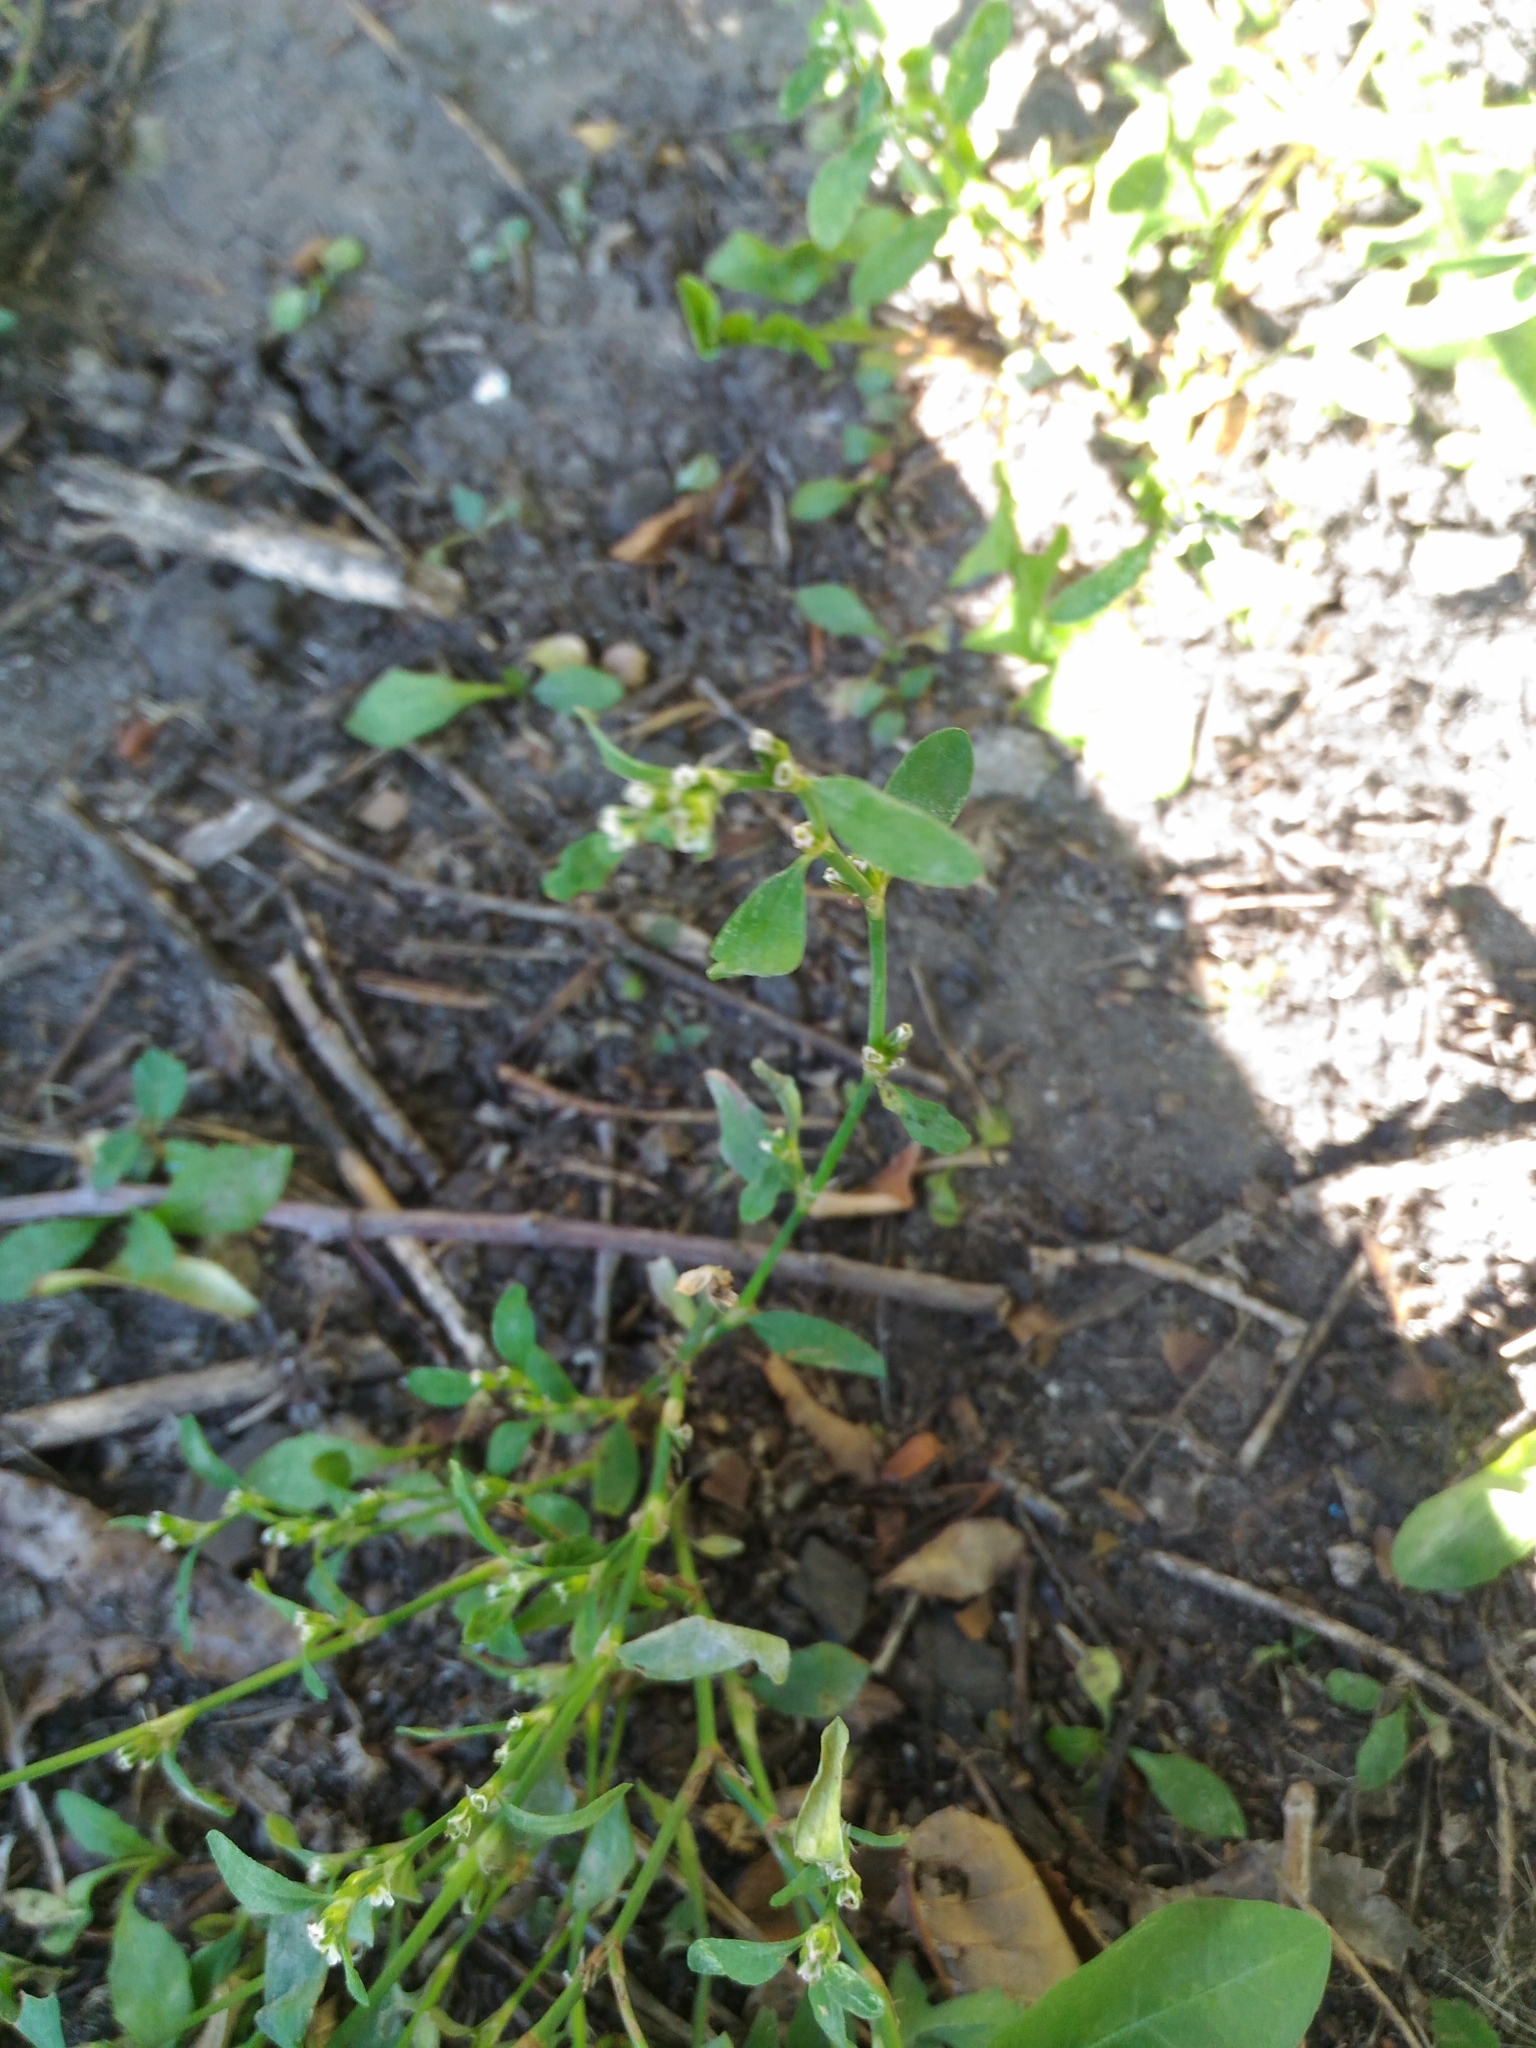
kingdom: Plantae
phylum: Tracheophyta
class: Magnoliopsida
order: Caryophyllales
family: Polygonaceae
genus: Polygonum
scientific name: Polygonum
